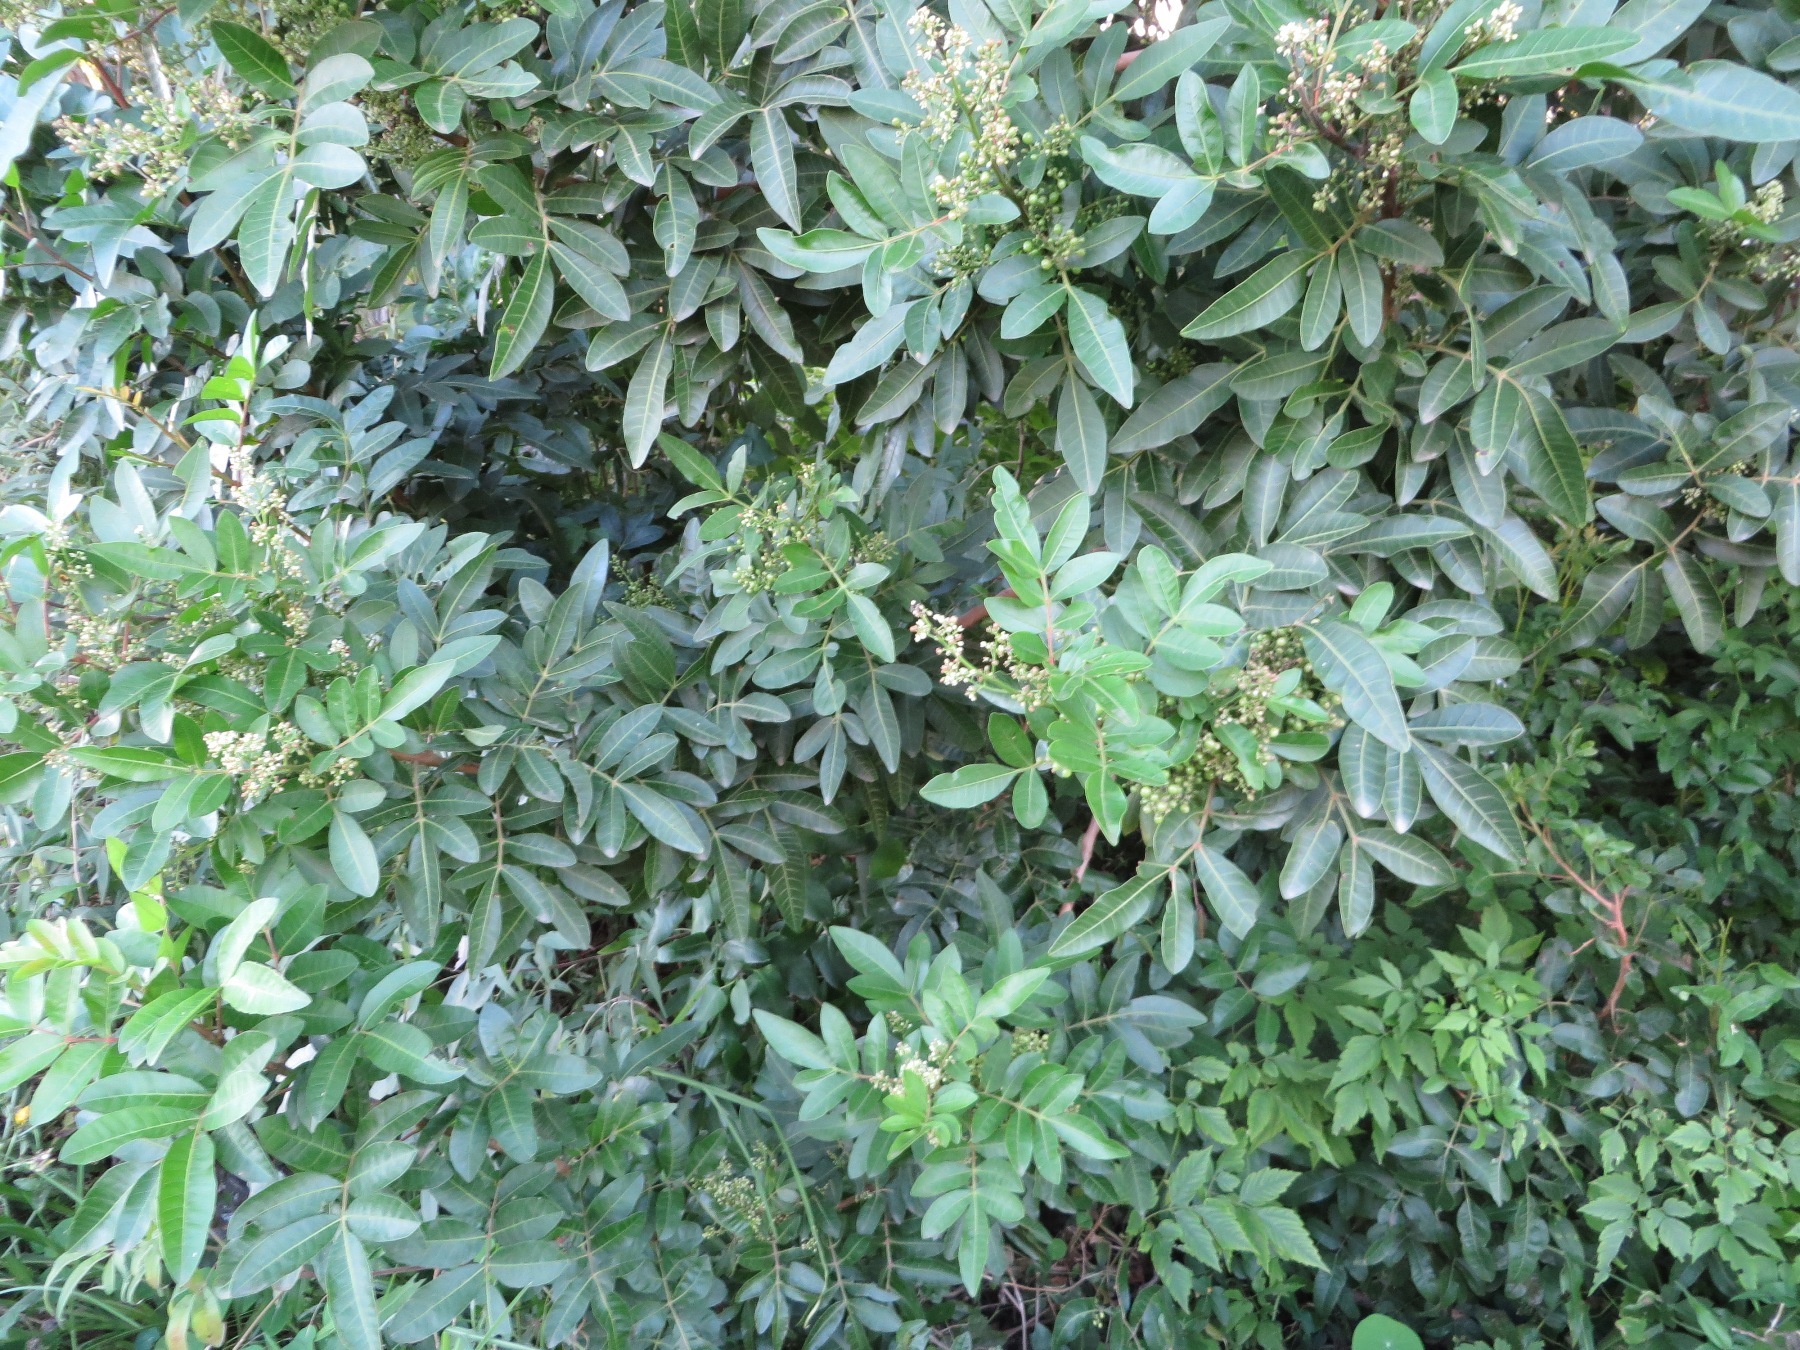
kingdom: Plantae
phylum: Tracheophyta
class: Magnoliopsida
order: Sapindales
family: Anacardiaceae
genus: Schinus
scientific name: Schinus terebinthifolia
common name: Brazilian peppertree
